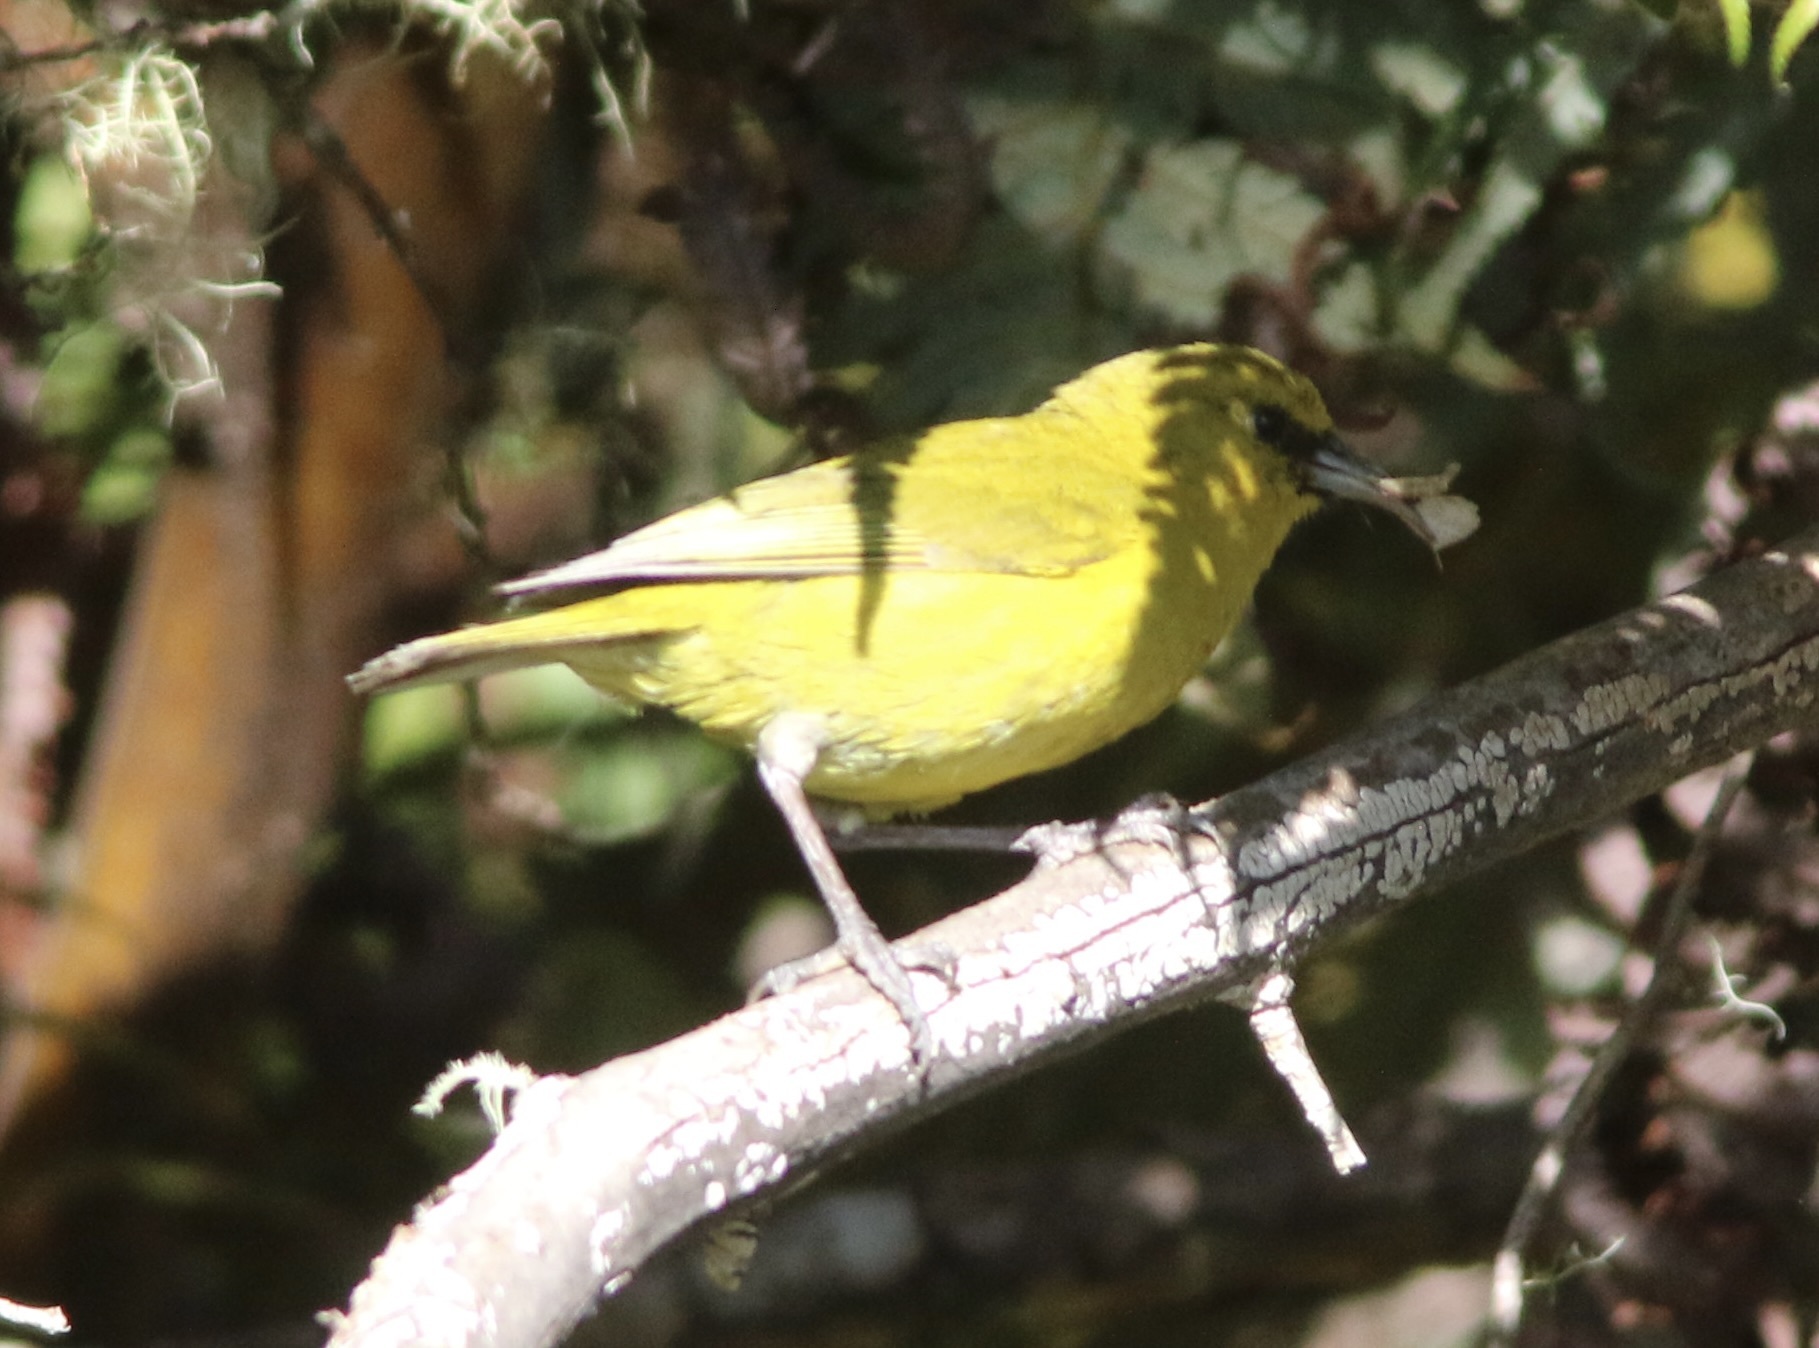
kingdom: Animalia
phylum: Chordata
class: Aves
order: Passeriformes
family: Fringillidae
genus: Chlorodrepanis
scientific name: Chlorodrepanis virens
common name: Hawaii amakihi
